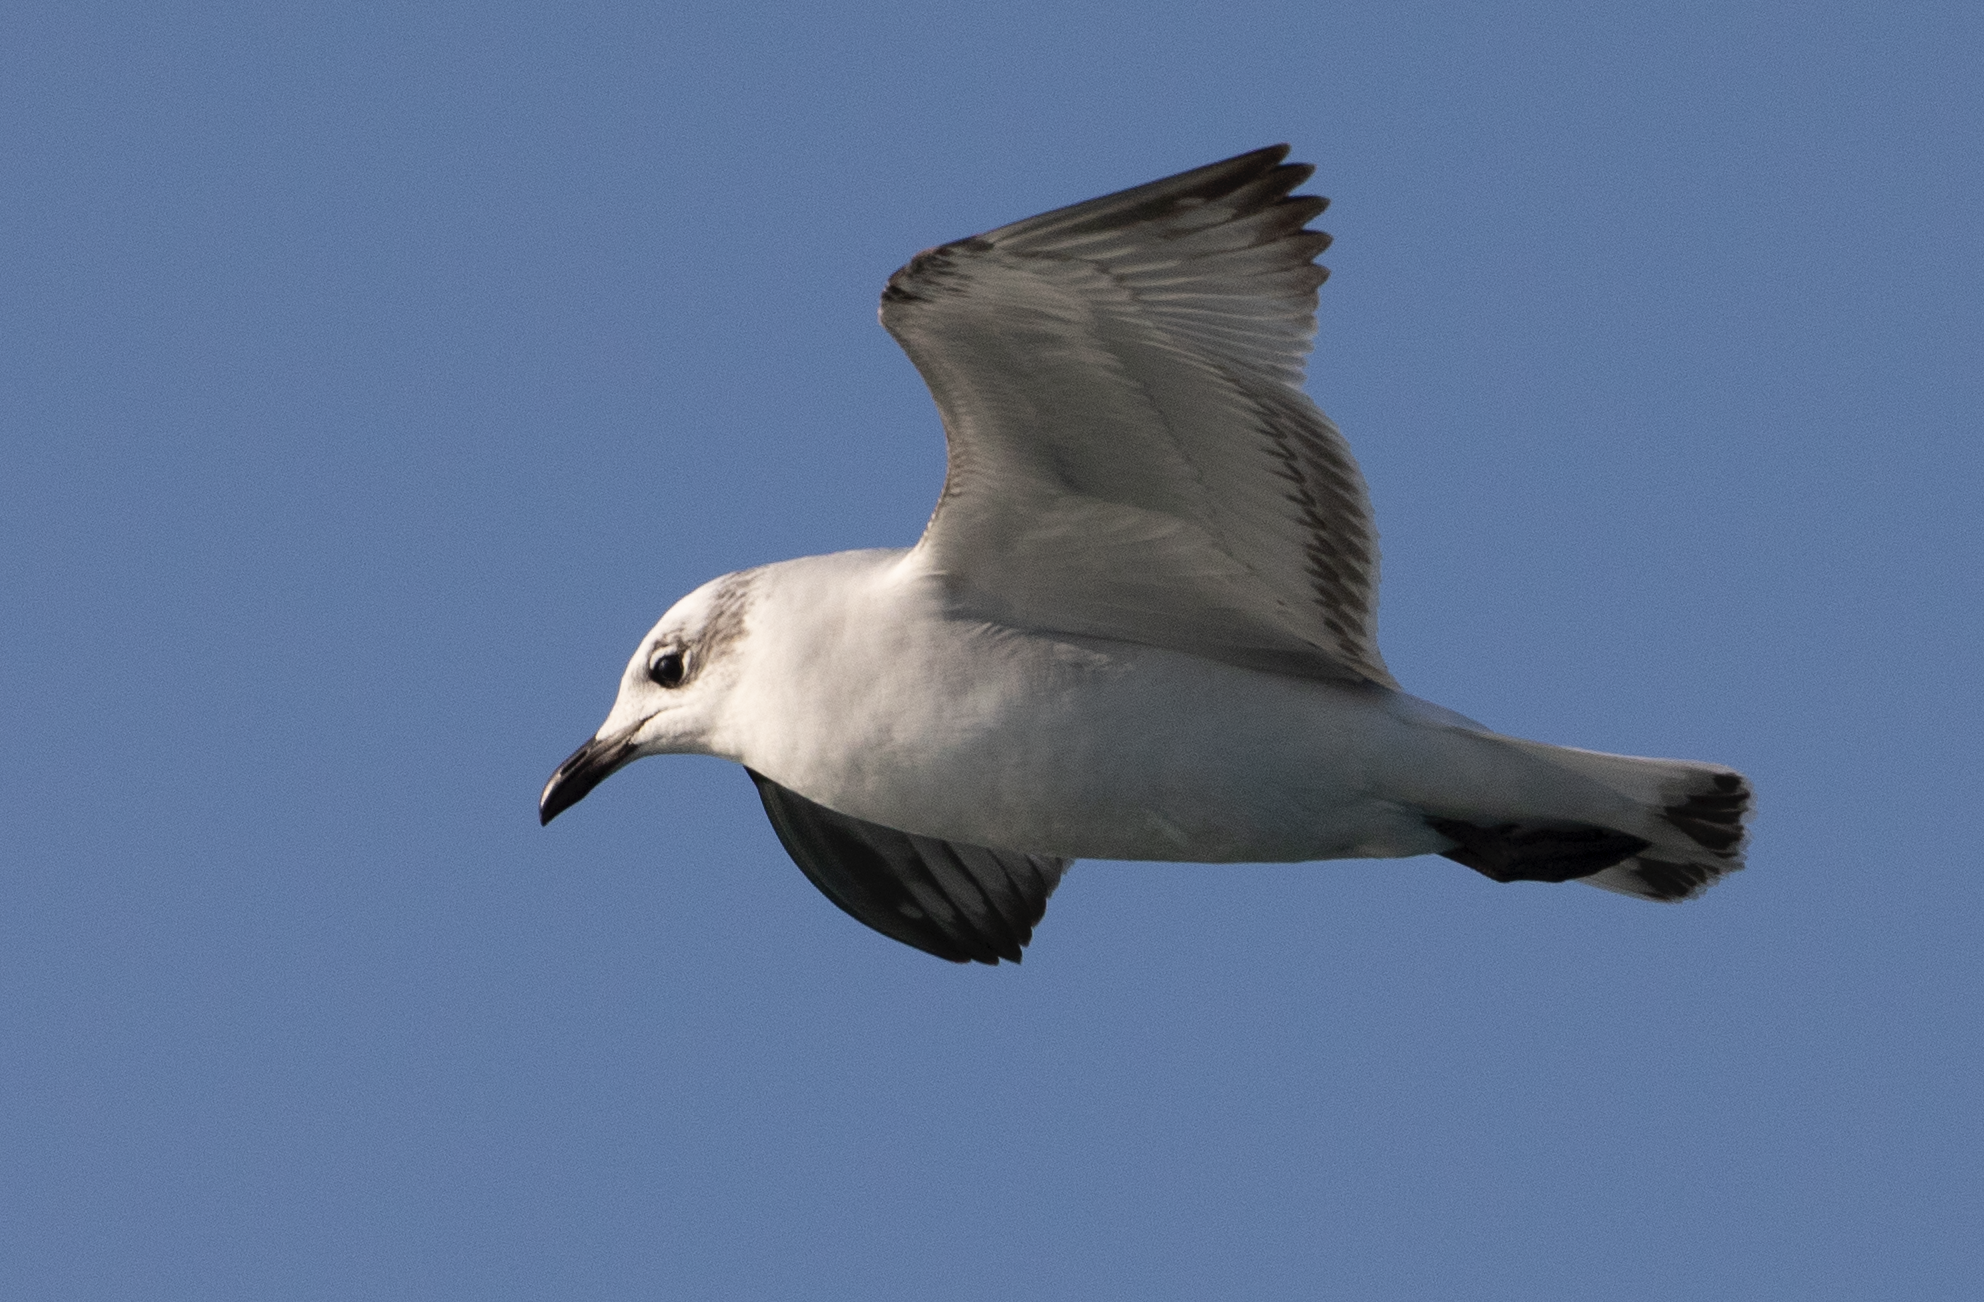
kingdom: Animalia
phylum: Chordata
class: Aves
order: Charadriiformes
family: Laridae
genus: Ichthyaetus
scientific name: Ichthyaetus melanocephalus
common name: Mediterranean gull
